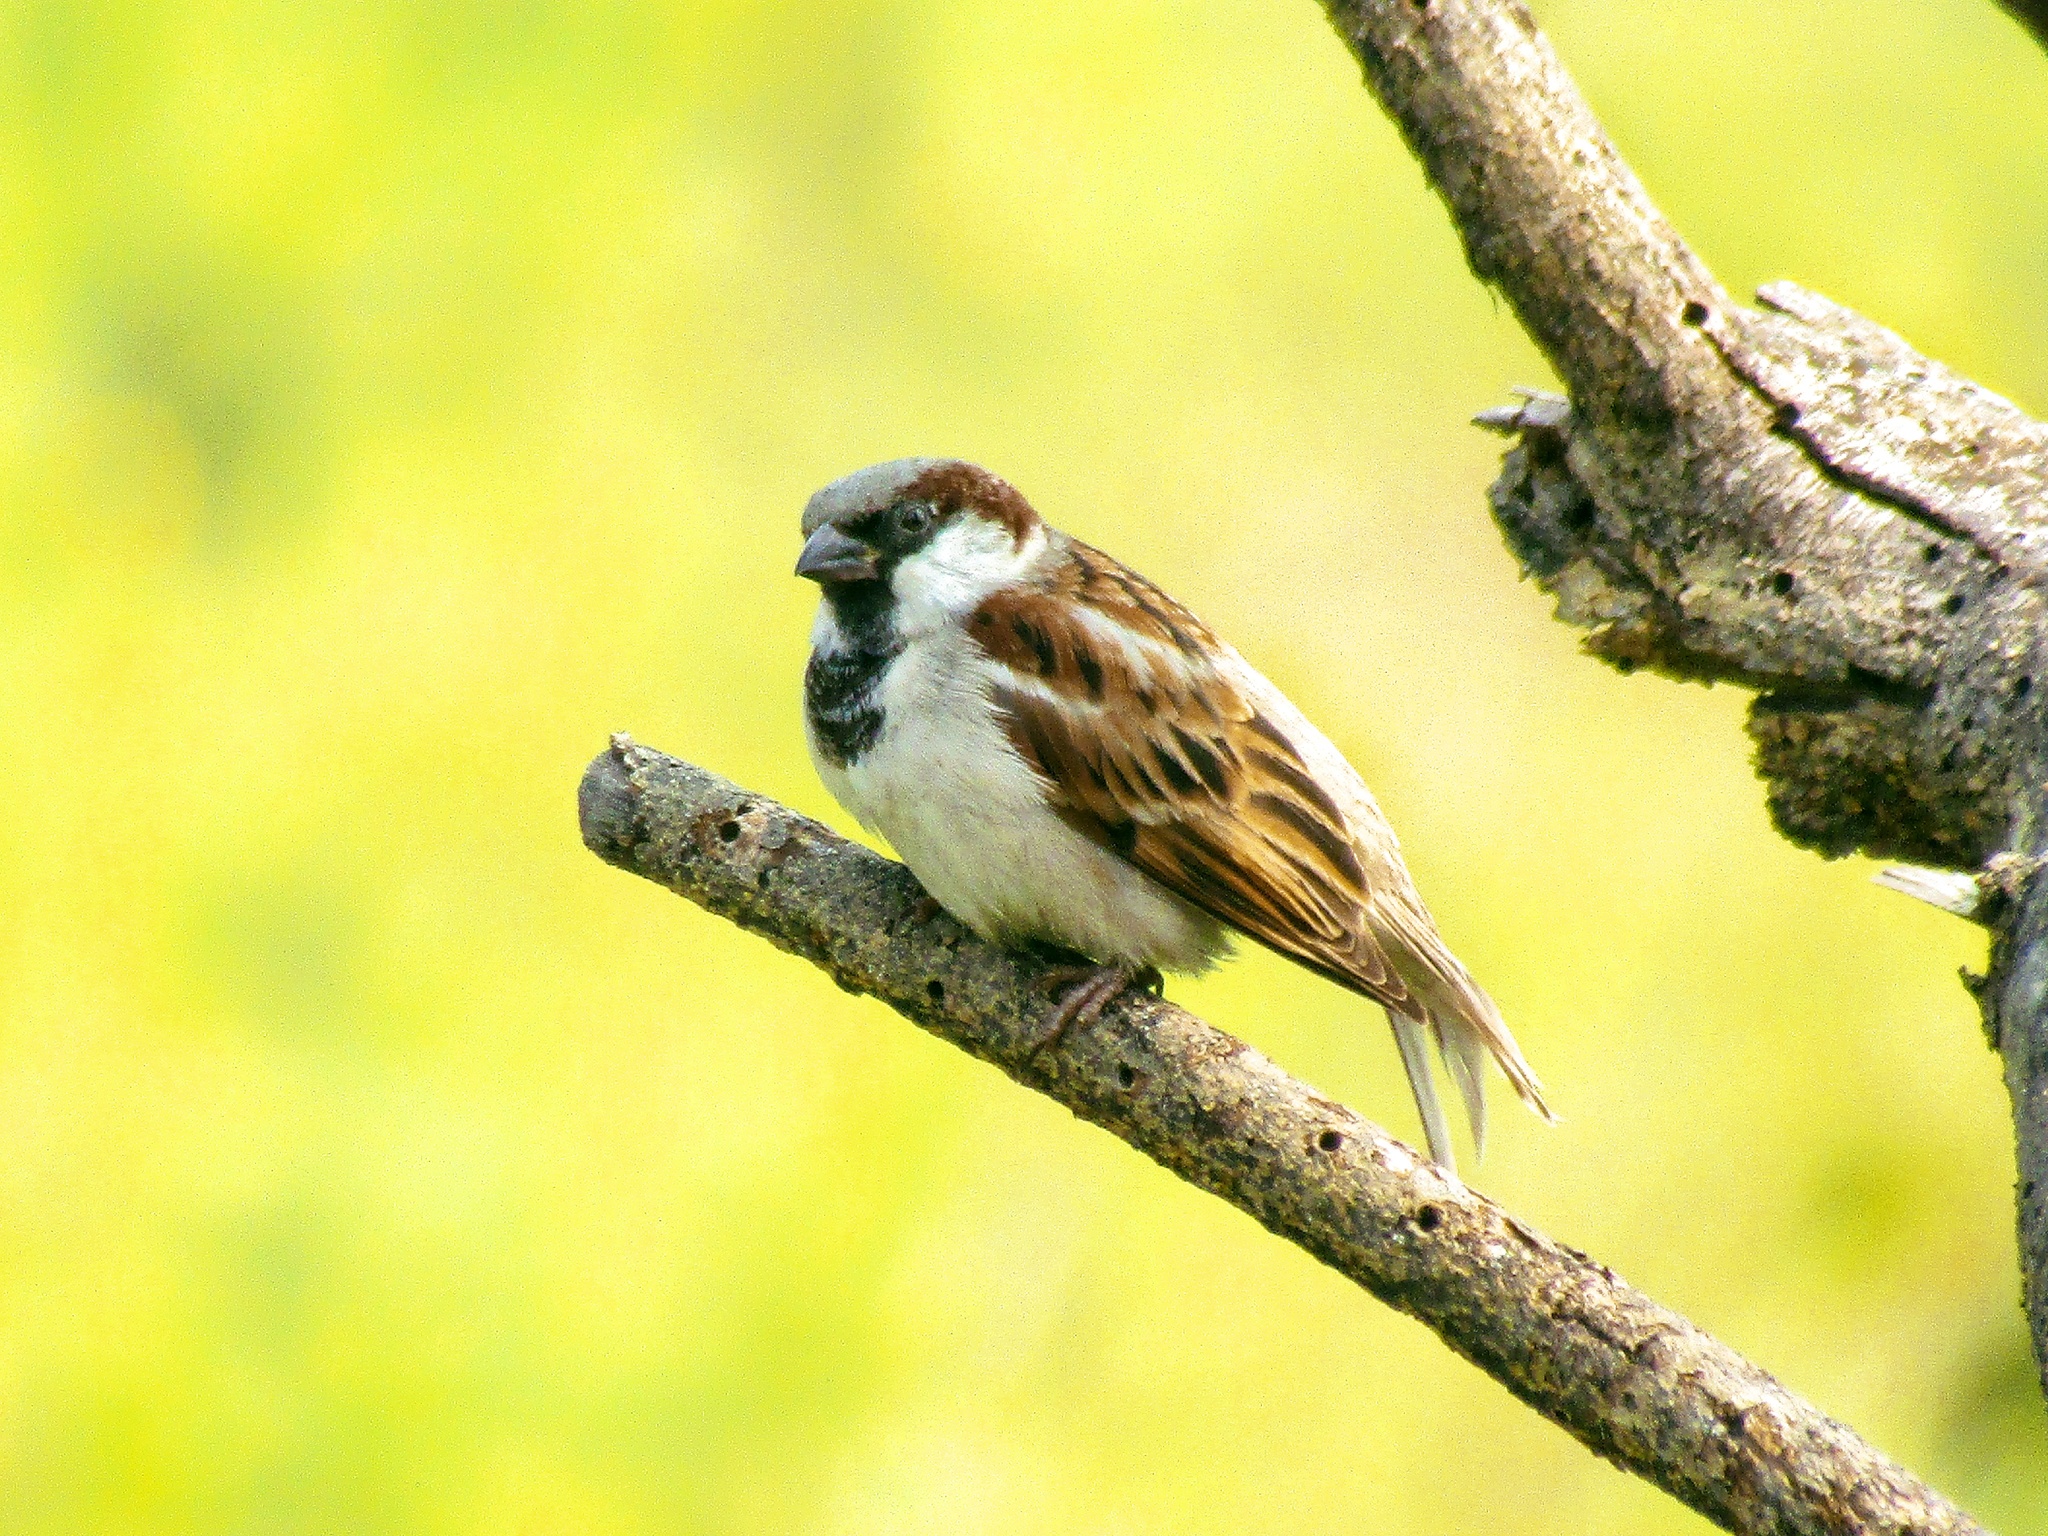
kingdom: Animalia
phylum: Chordata
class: Aves
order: Passeriformes
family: Passeridae
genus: Passer
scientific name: Passer domesticus
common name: House sparrow
